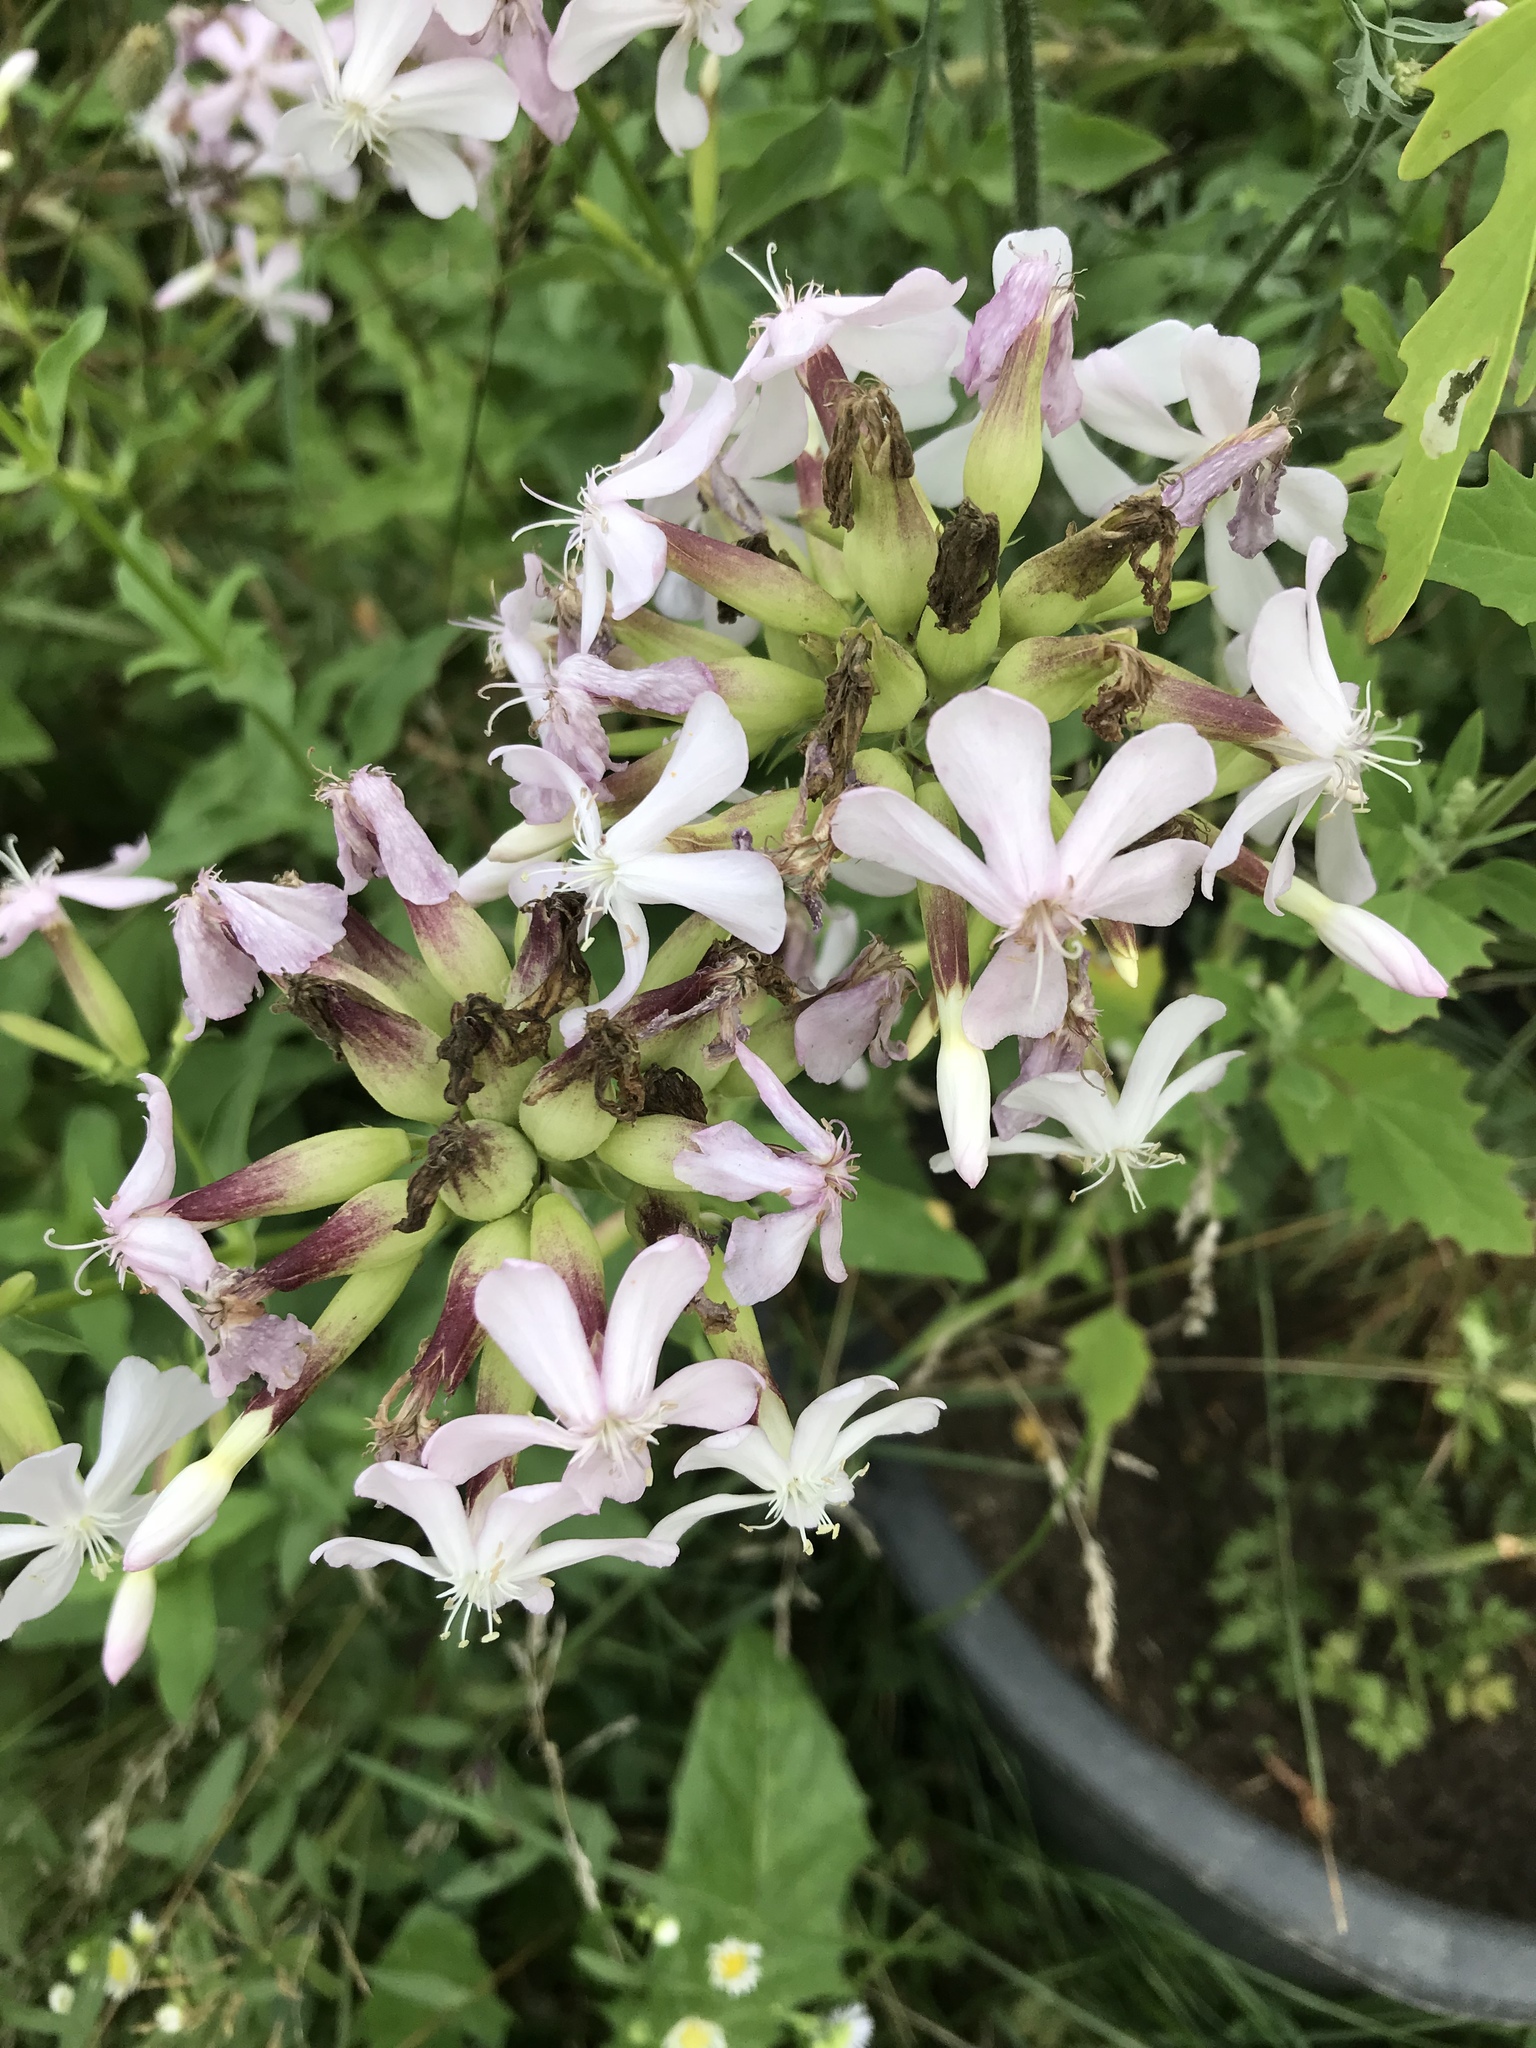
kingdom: Plantae
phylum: Tracheophyta
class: Magnoliopsida
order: Caryophyllales
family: Caryophyllaceae
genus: Saponaria
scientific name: Saponaria officinalis
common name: Soapwort
